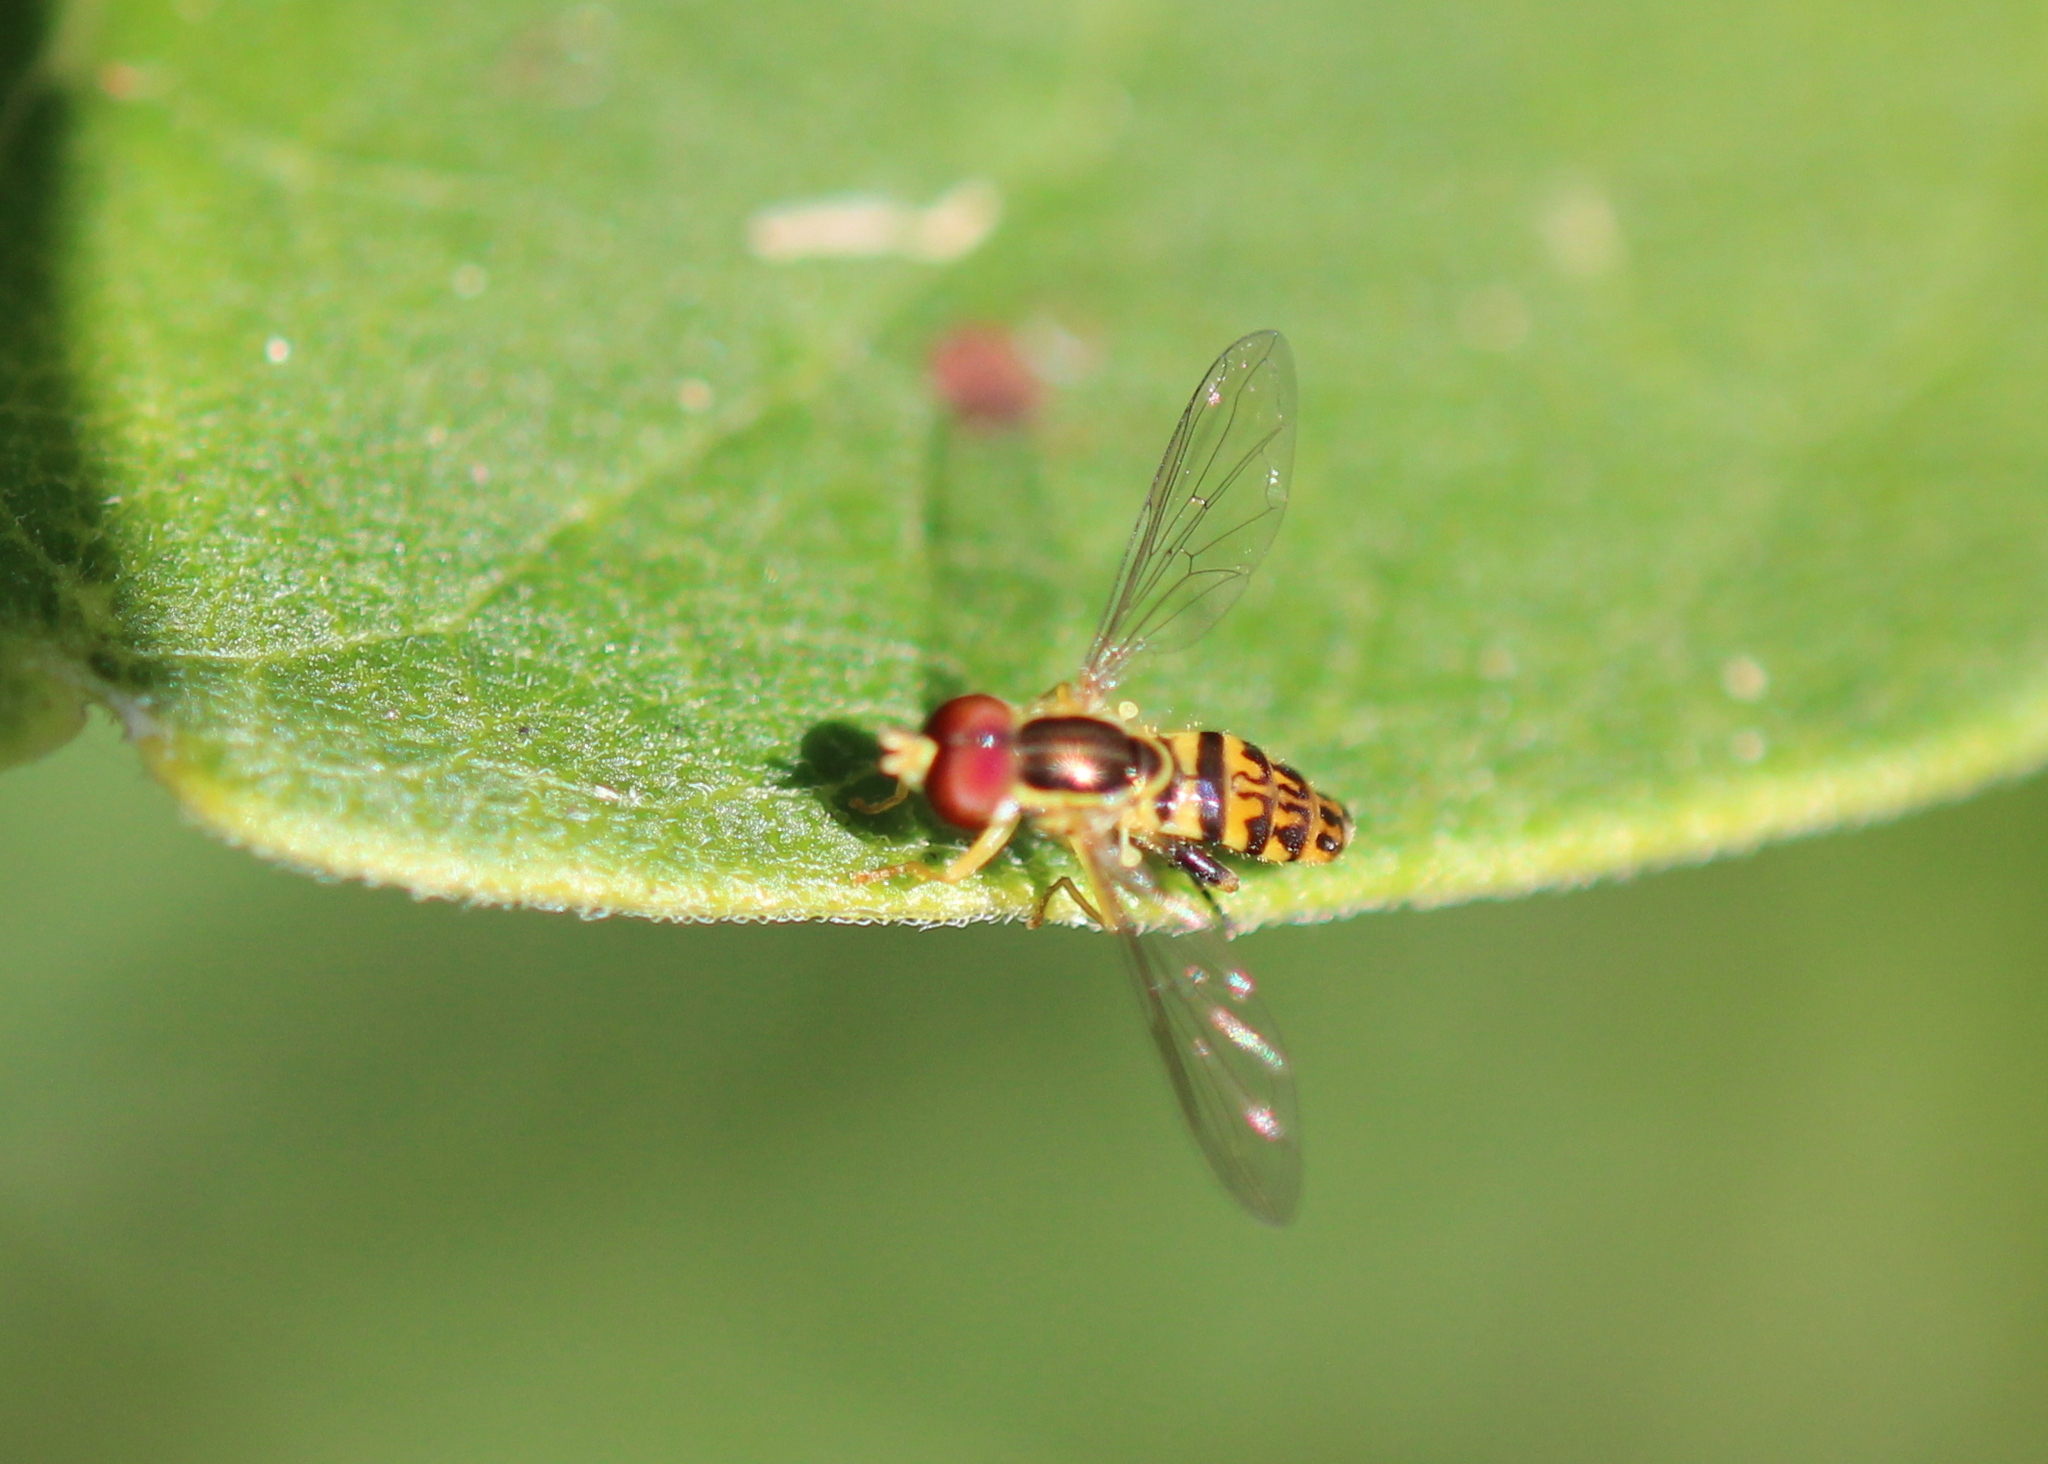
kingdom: Animalia
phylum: Arthropoda
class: Insecta
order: Diptera
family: Syrphidae
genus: Toxomerus
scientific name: Toxomerus geminatus
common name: Eastern calligrapher
